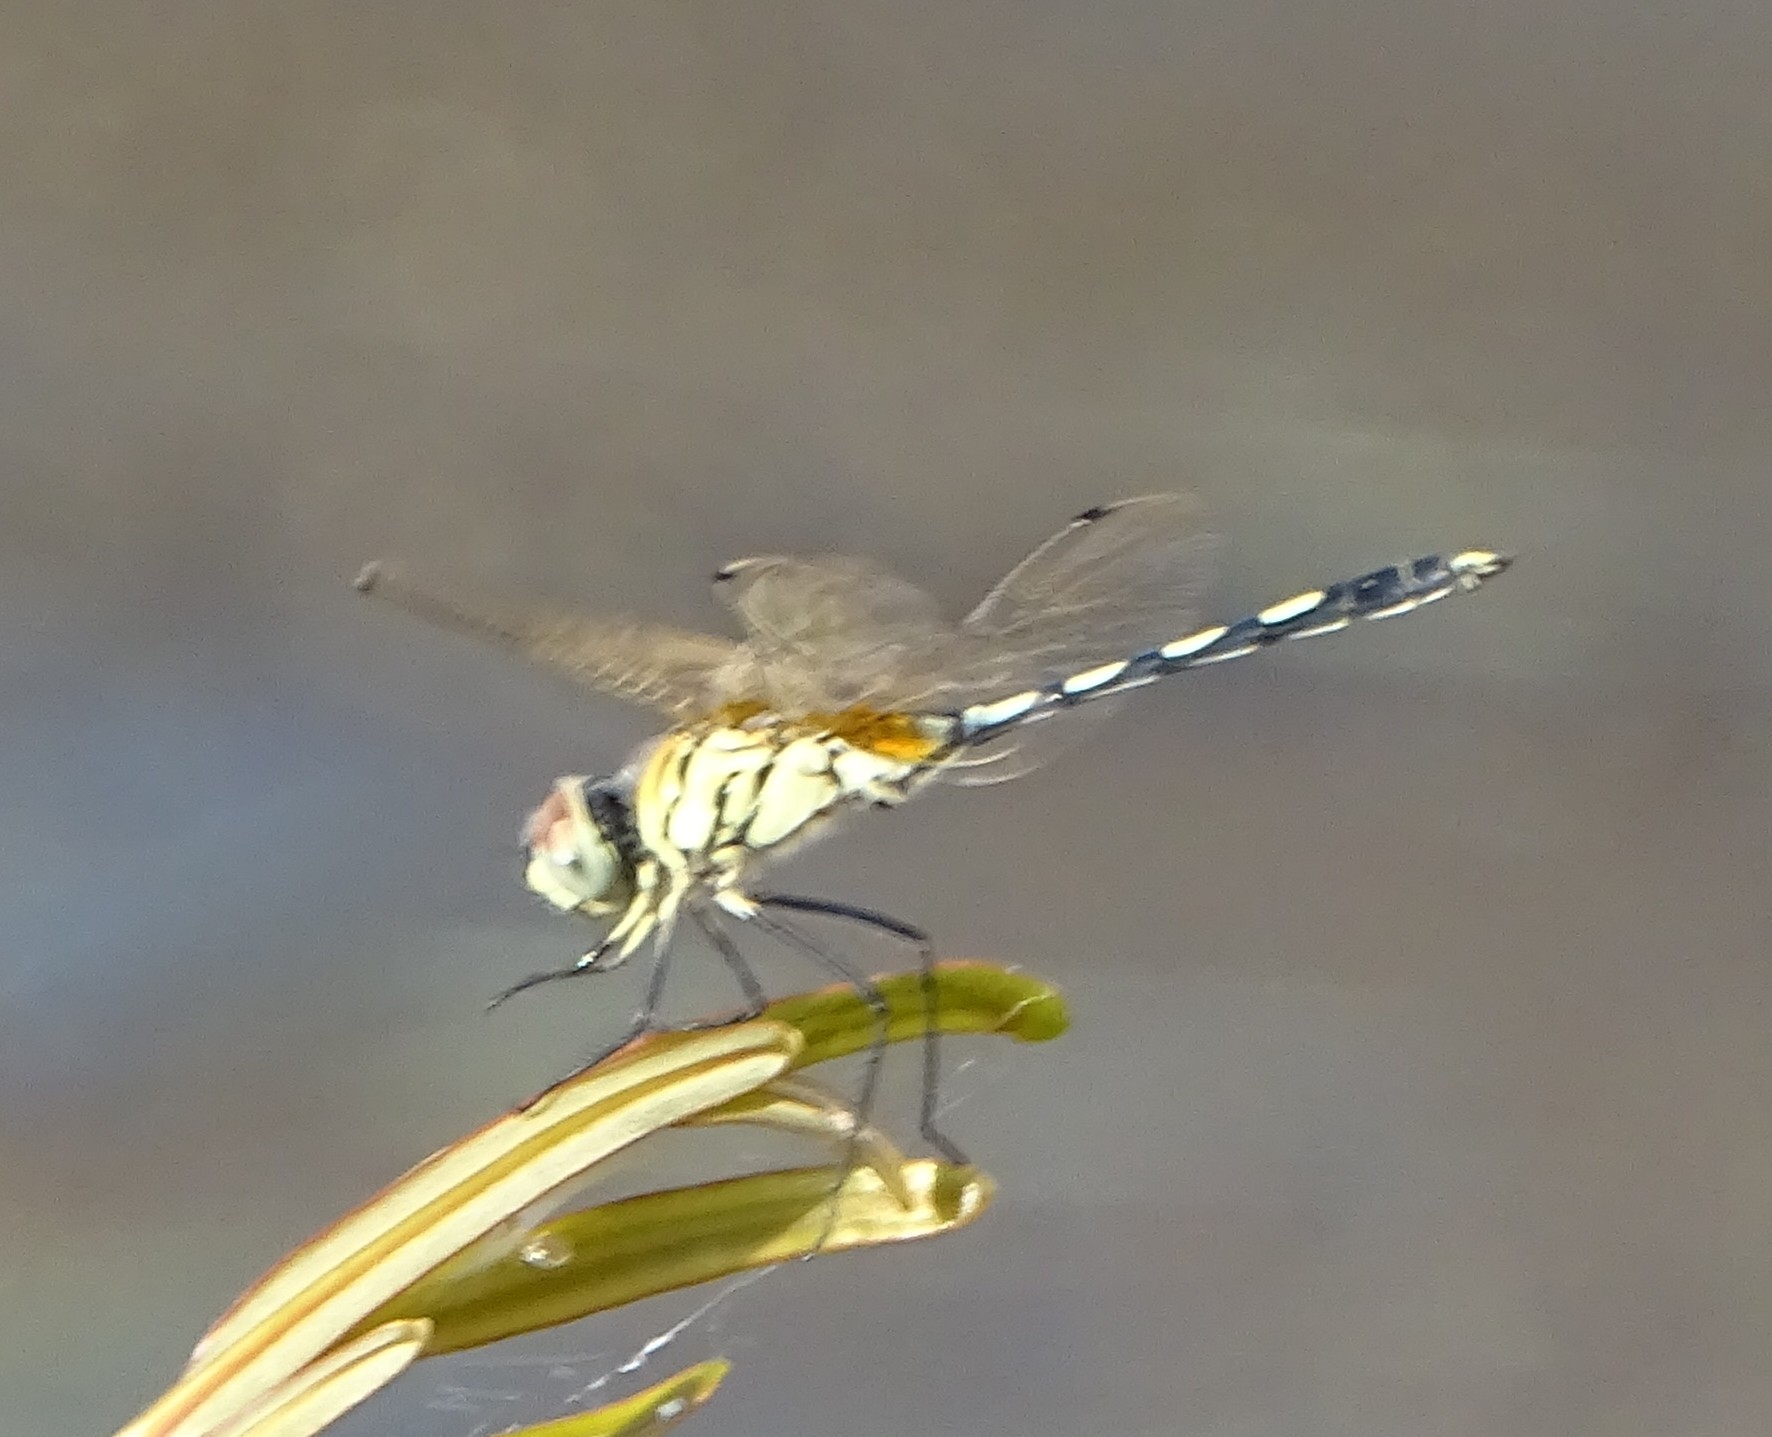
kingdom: Animalia
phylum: Arthropoda
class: Insecta
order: Odonata
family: Libellulidae
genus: Trithemis
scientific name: Trithemis pallidinervis
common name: Dancing dropwing
